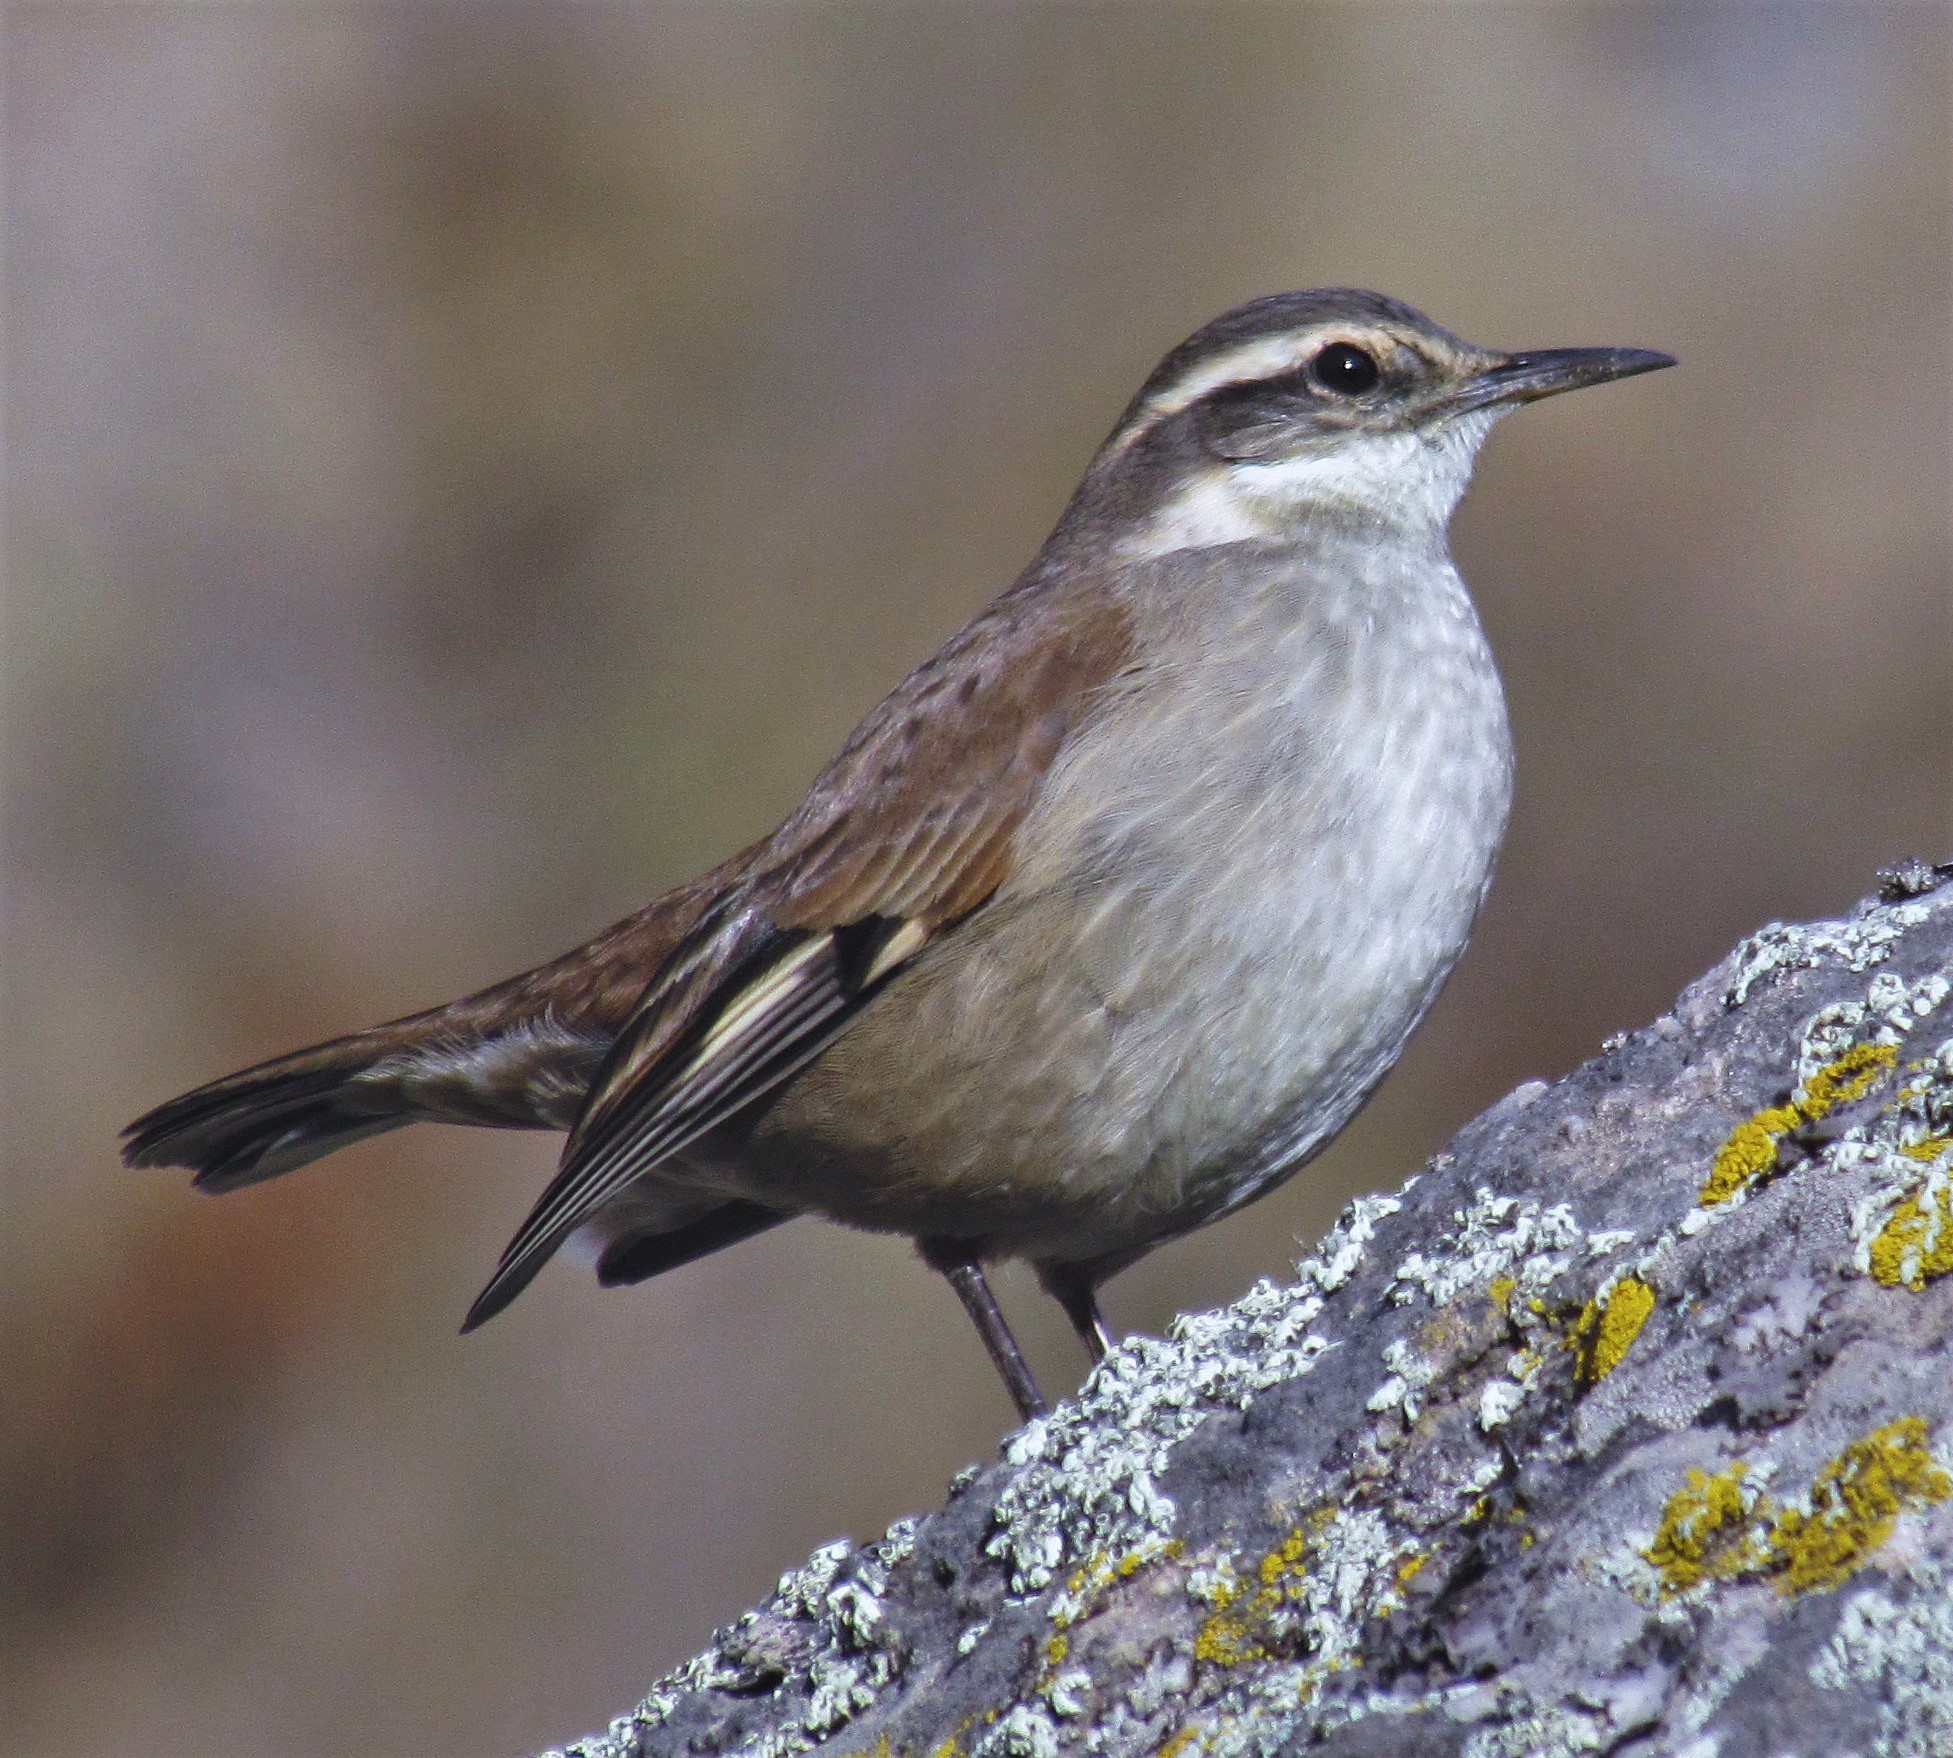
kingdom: Animalia
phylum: Chordata
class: Aves
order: Passeriformes
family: Furnariidae
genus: Cinclodes
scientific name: Cinclodes fuscus
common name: Buff-winged cinclodes
